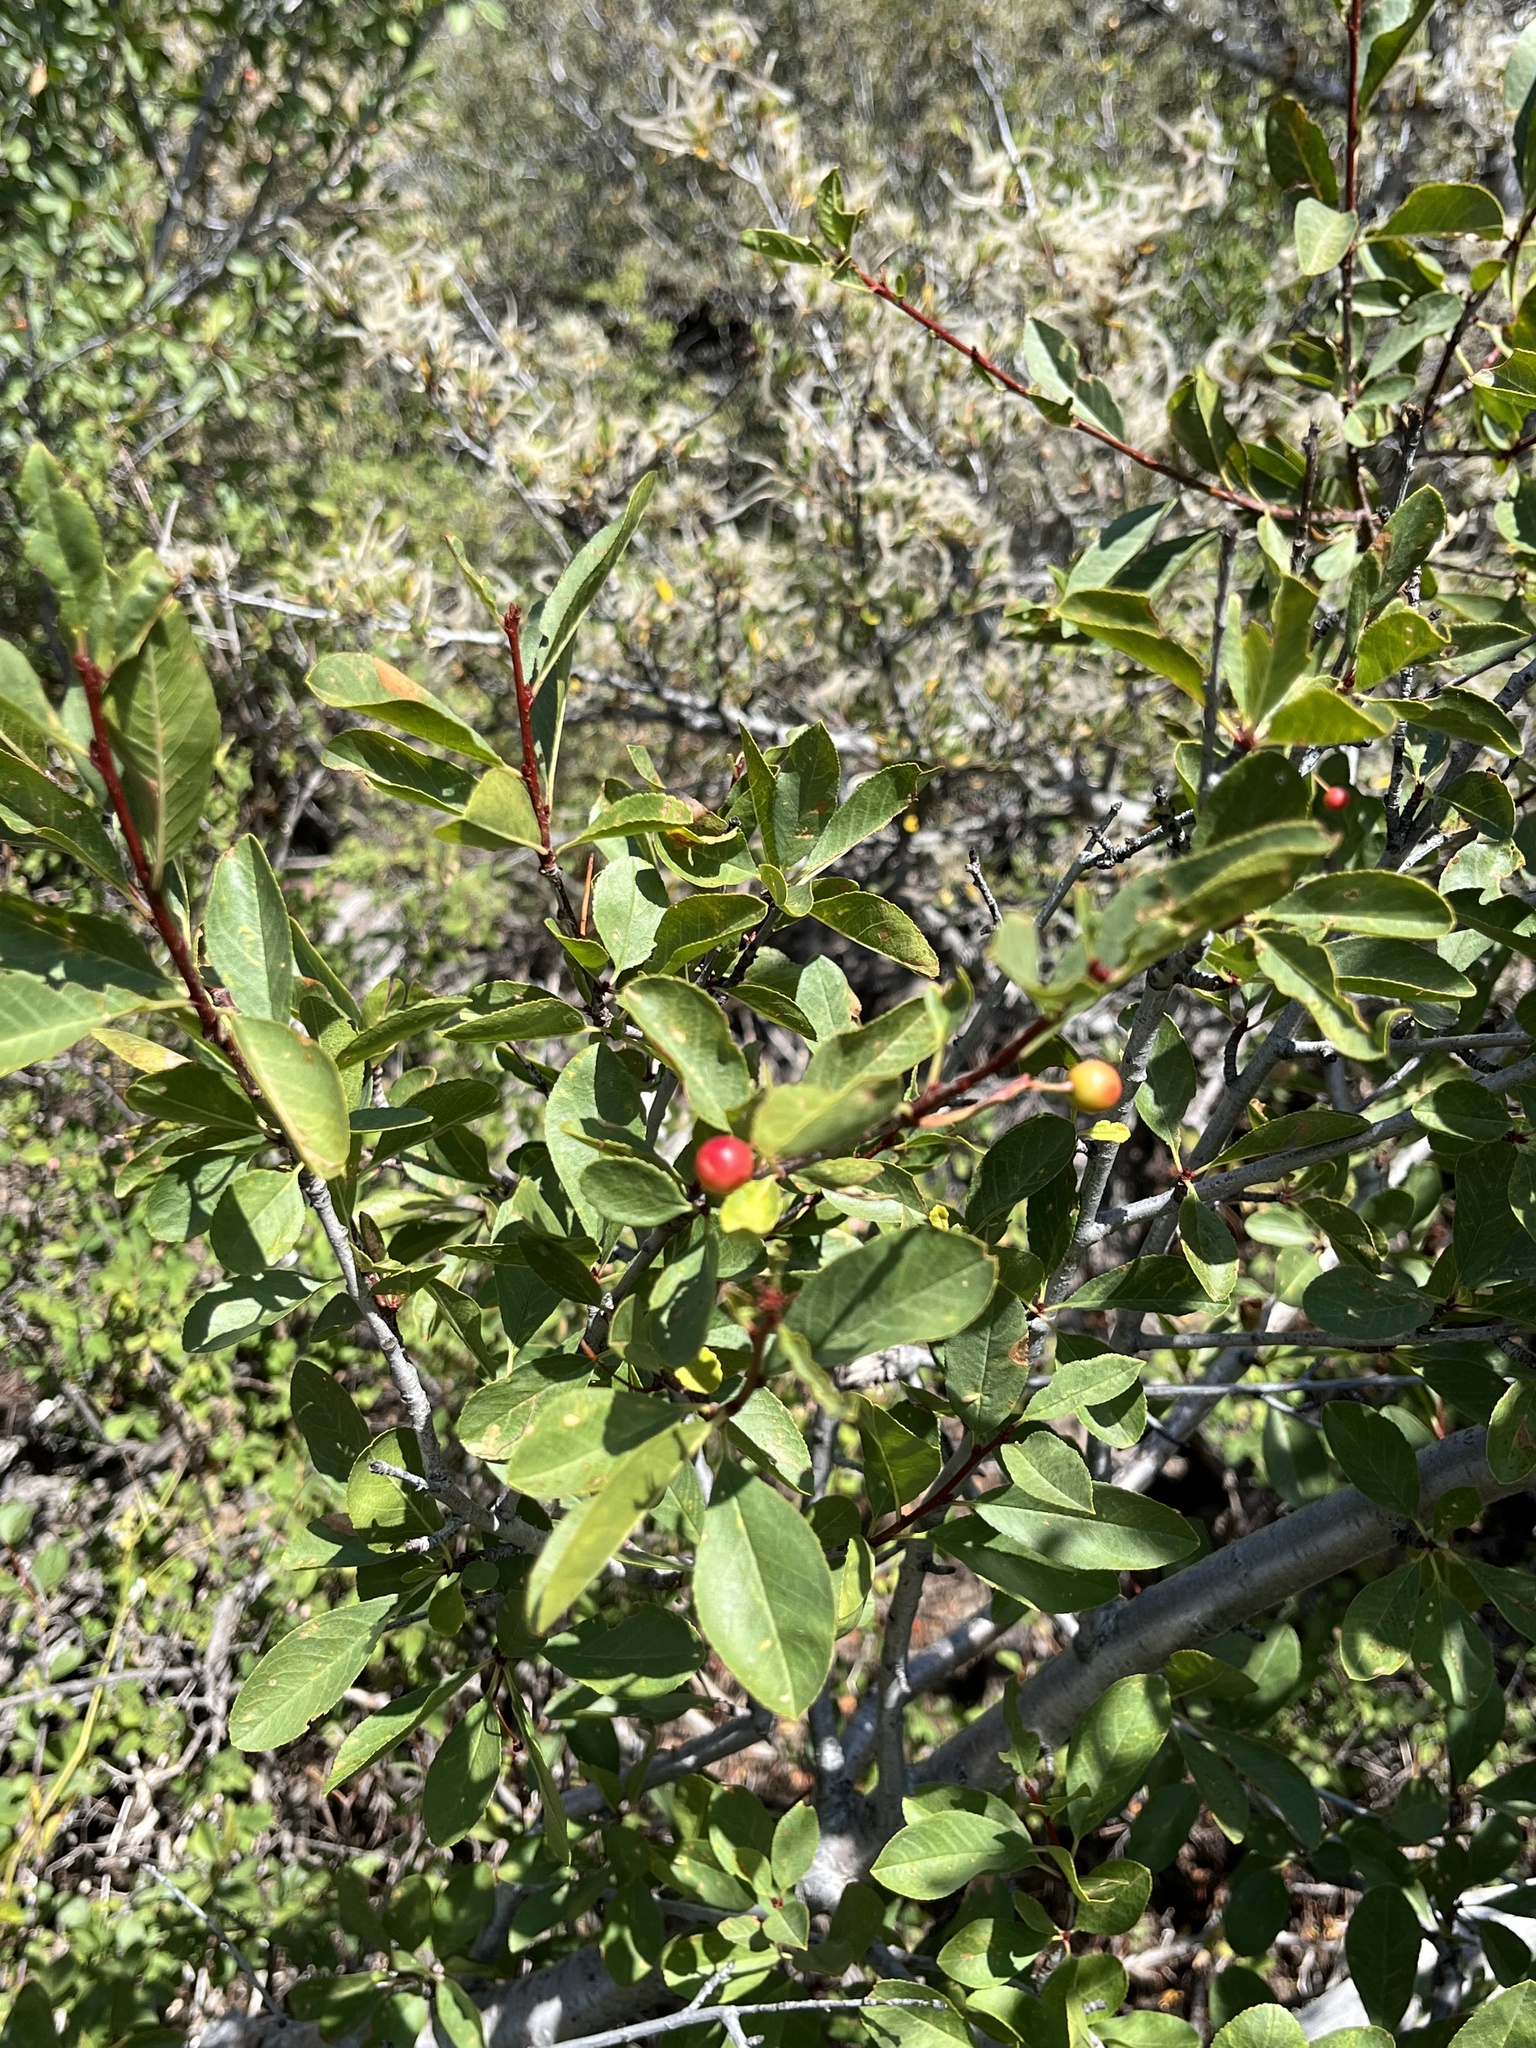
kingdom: Plantae
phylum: Tracheophyta
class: Magnoliopsida
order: Rosales
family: Rosaceae
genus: Prunus
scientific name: Prunus emarginata
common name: Bitter cherry
